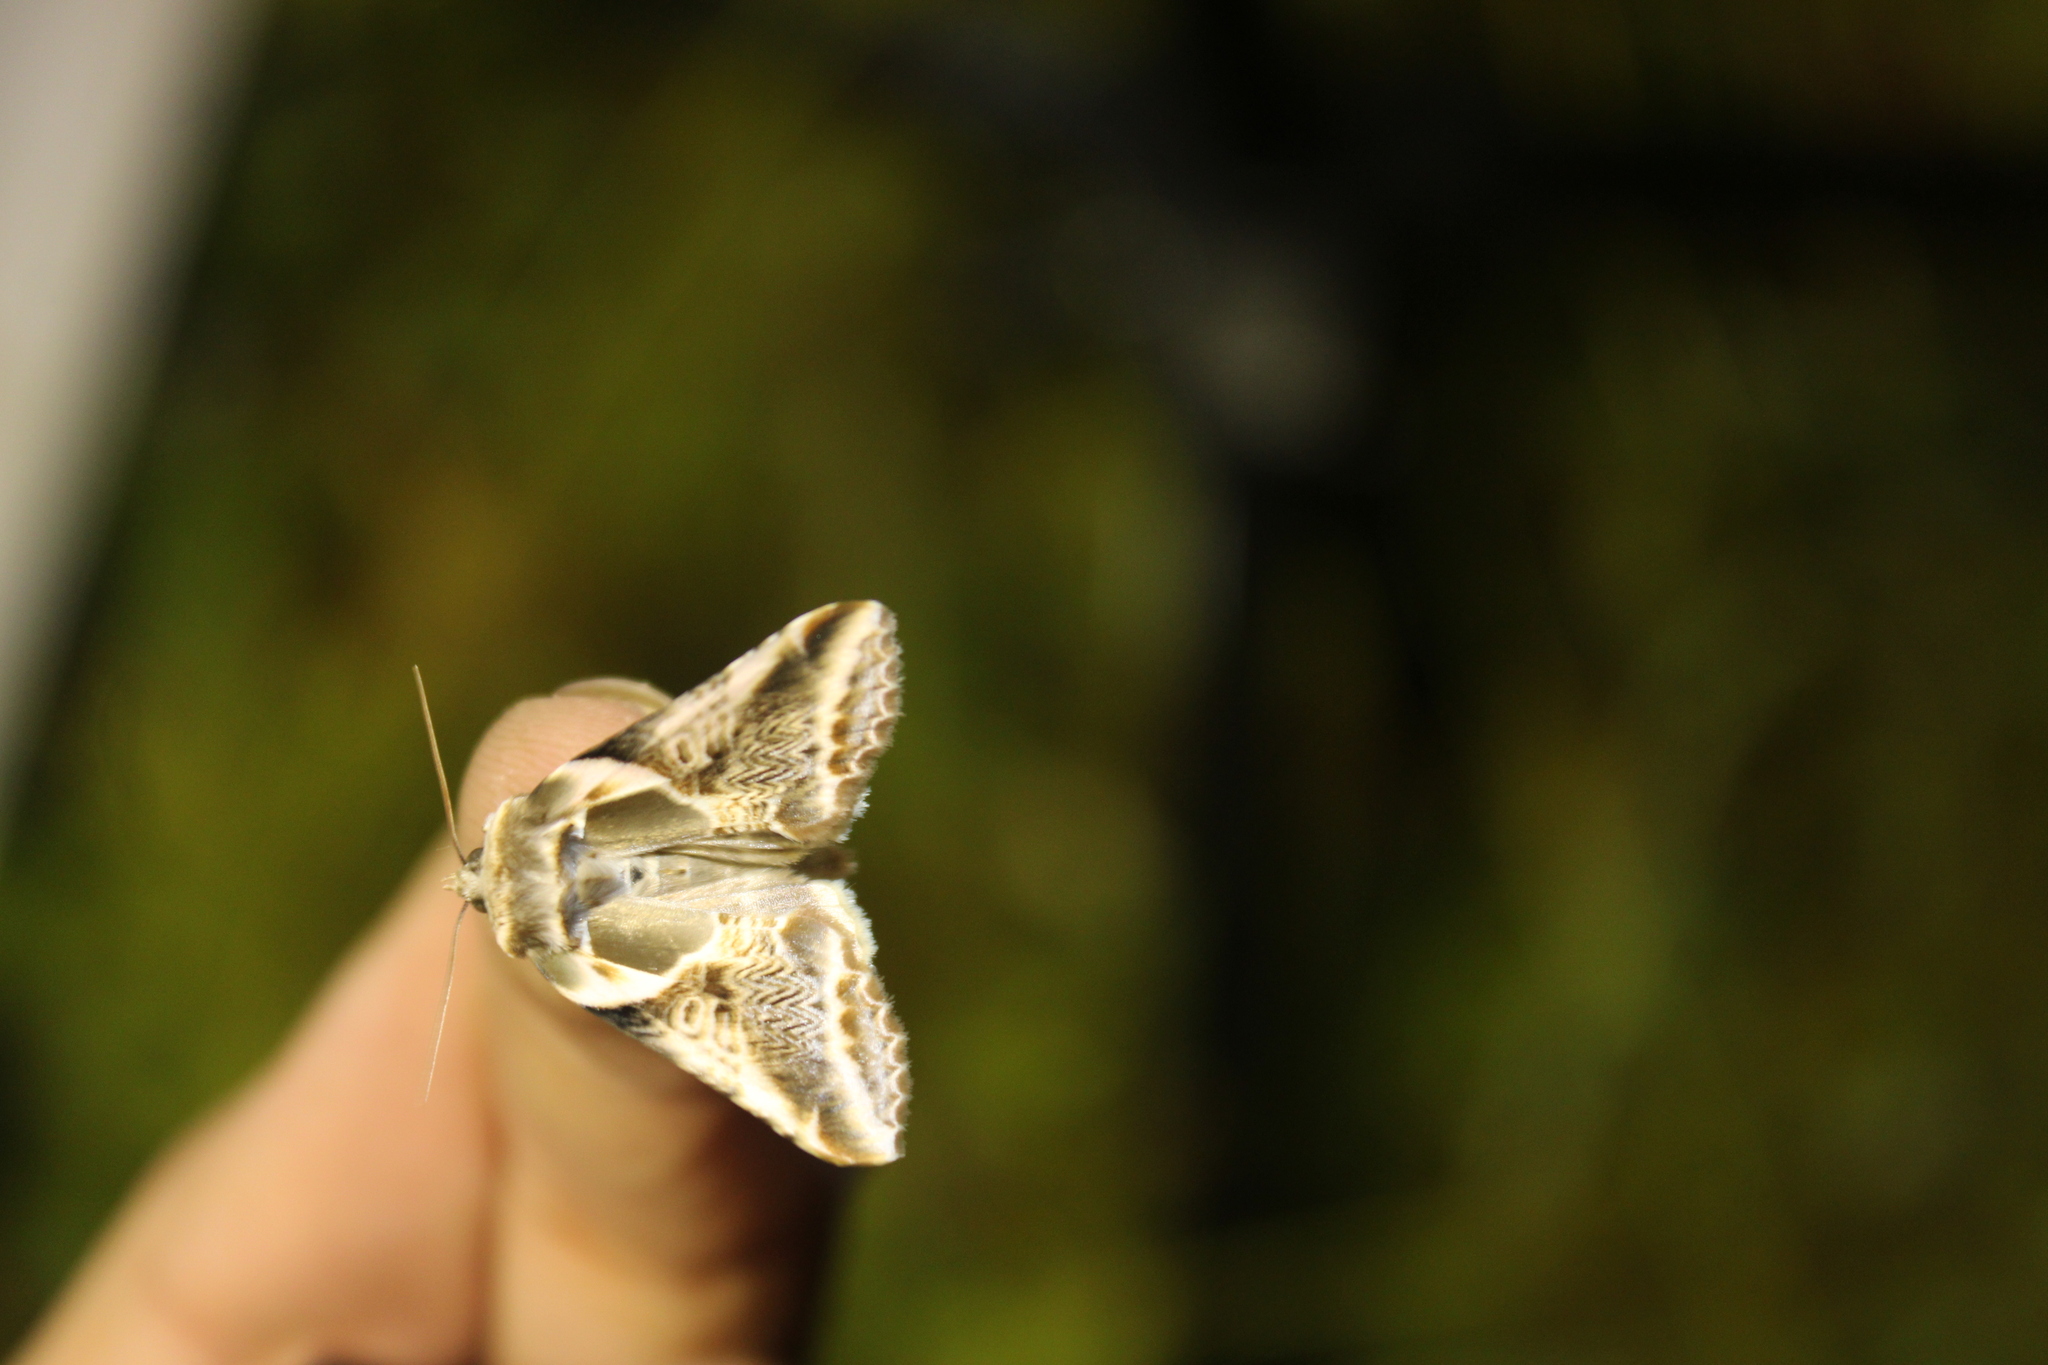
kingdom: Animalia
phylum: Arthropoda
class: Insecta
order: Lepidoptera
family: Drepanidae
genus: Habrosyne
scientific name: Habrosyne scripta
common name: Lettered habrosyne moth
